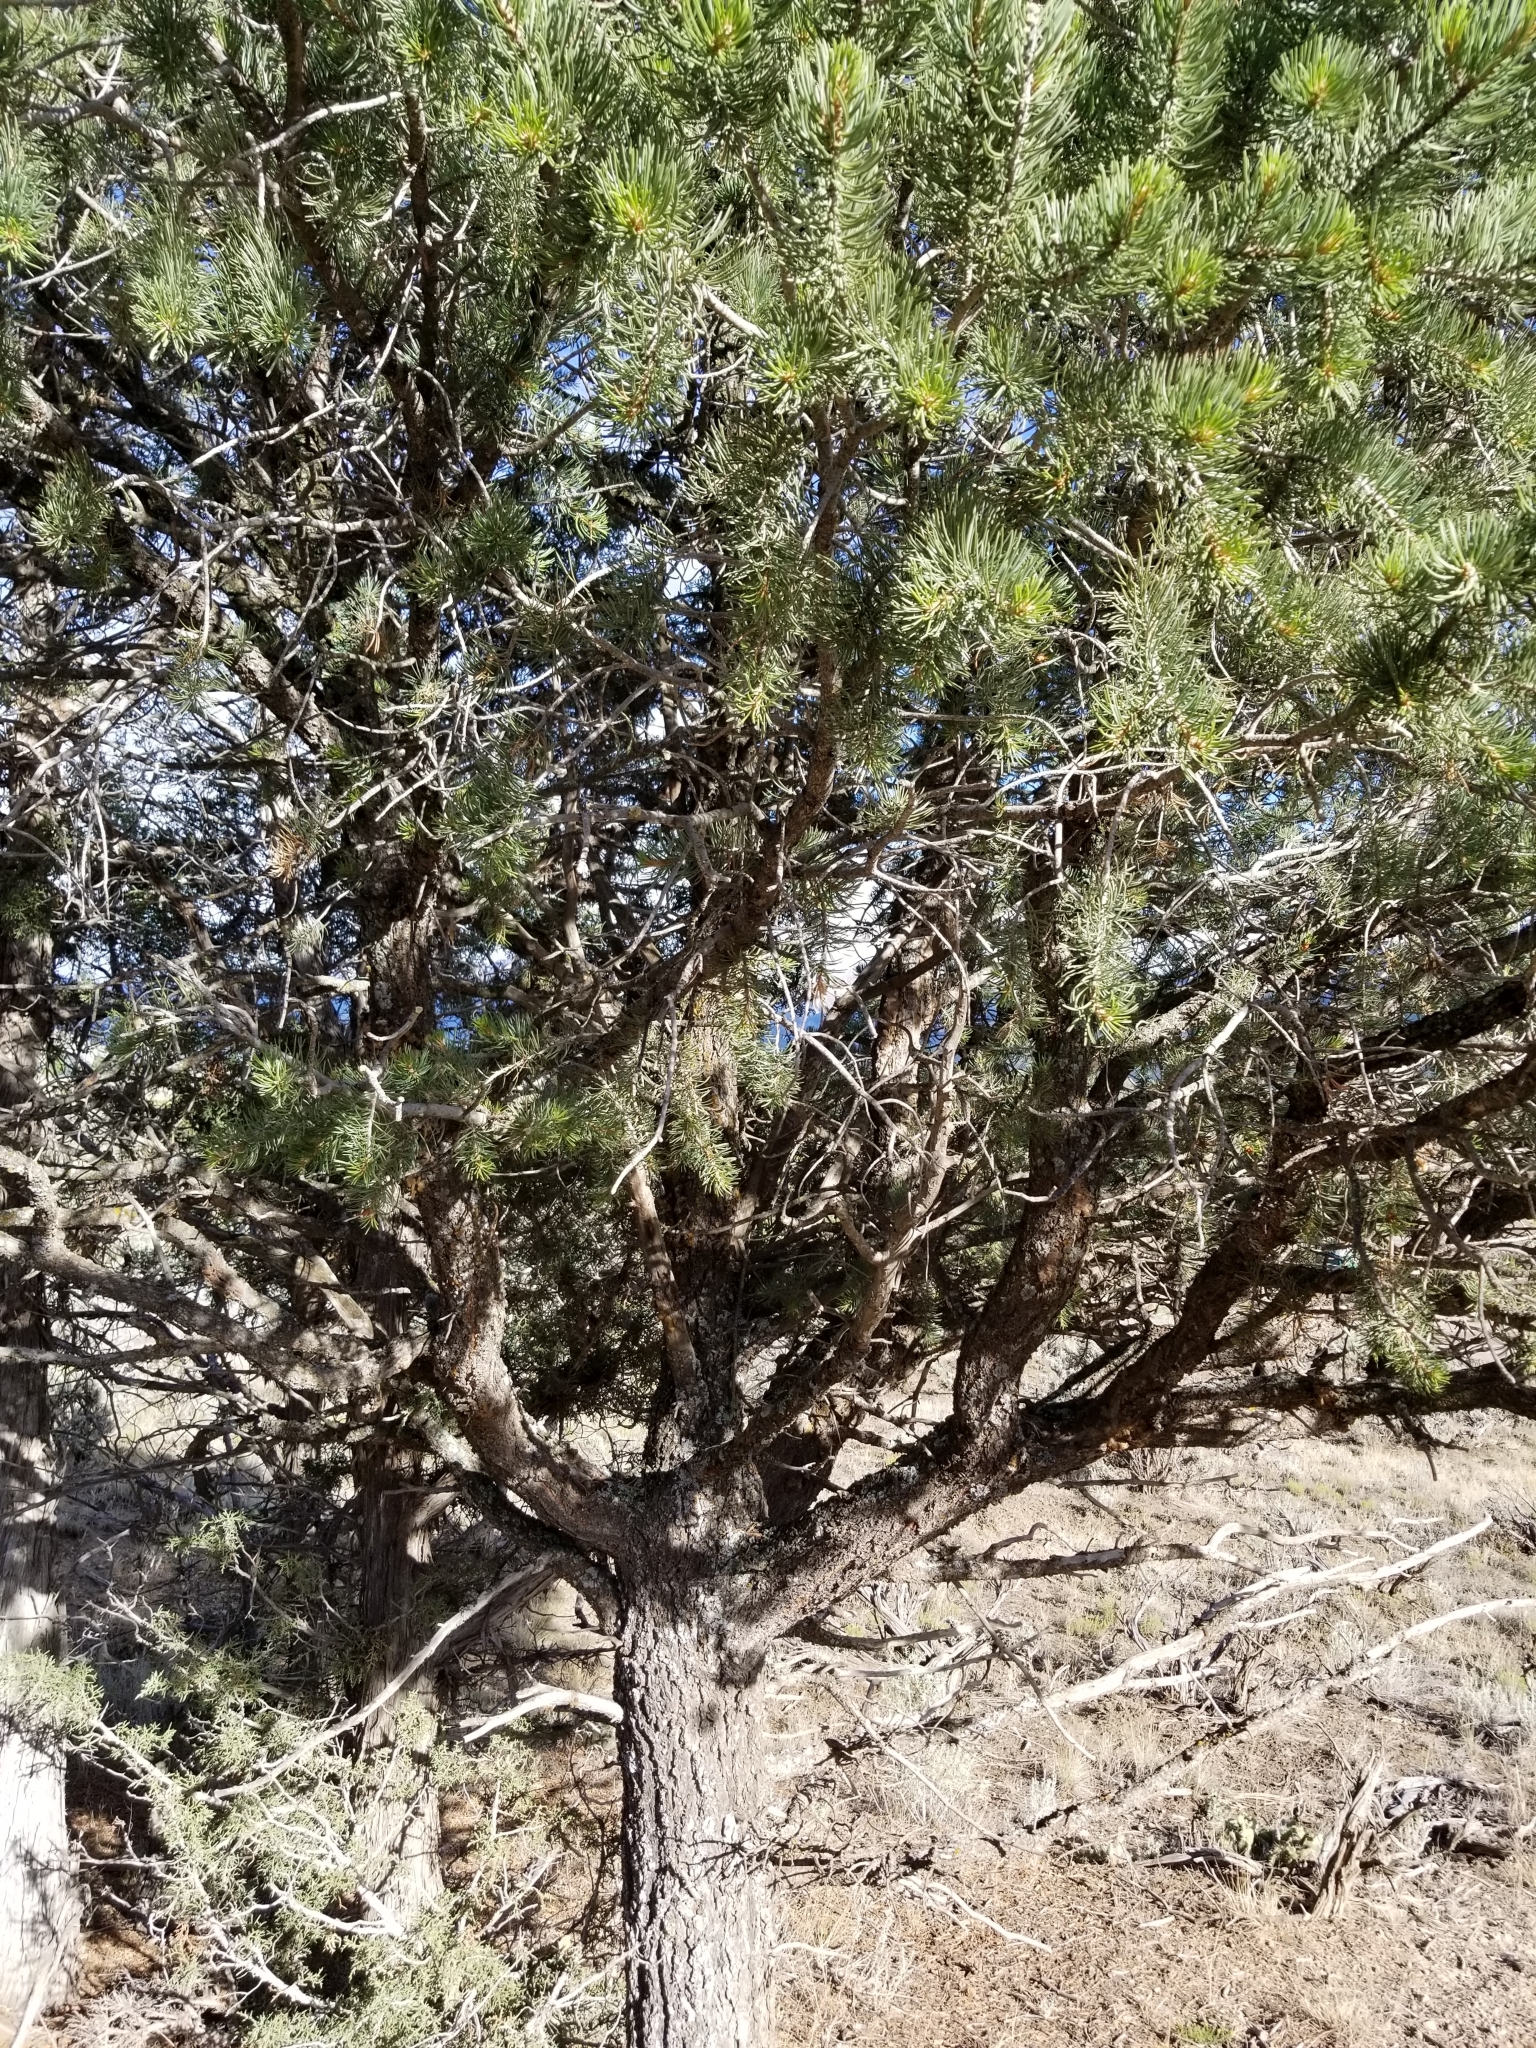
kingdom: Plantae
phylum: Tracheophyta
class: Pinopsida
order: Pinales
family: Pinaceae
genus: Pinus
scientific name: Pinus edulis
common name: Colorado pinyon
